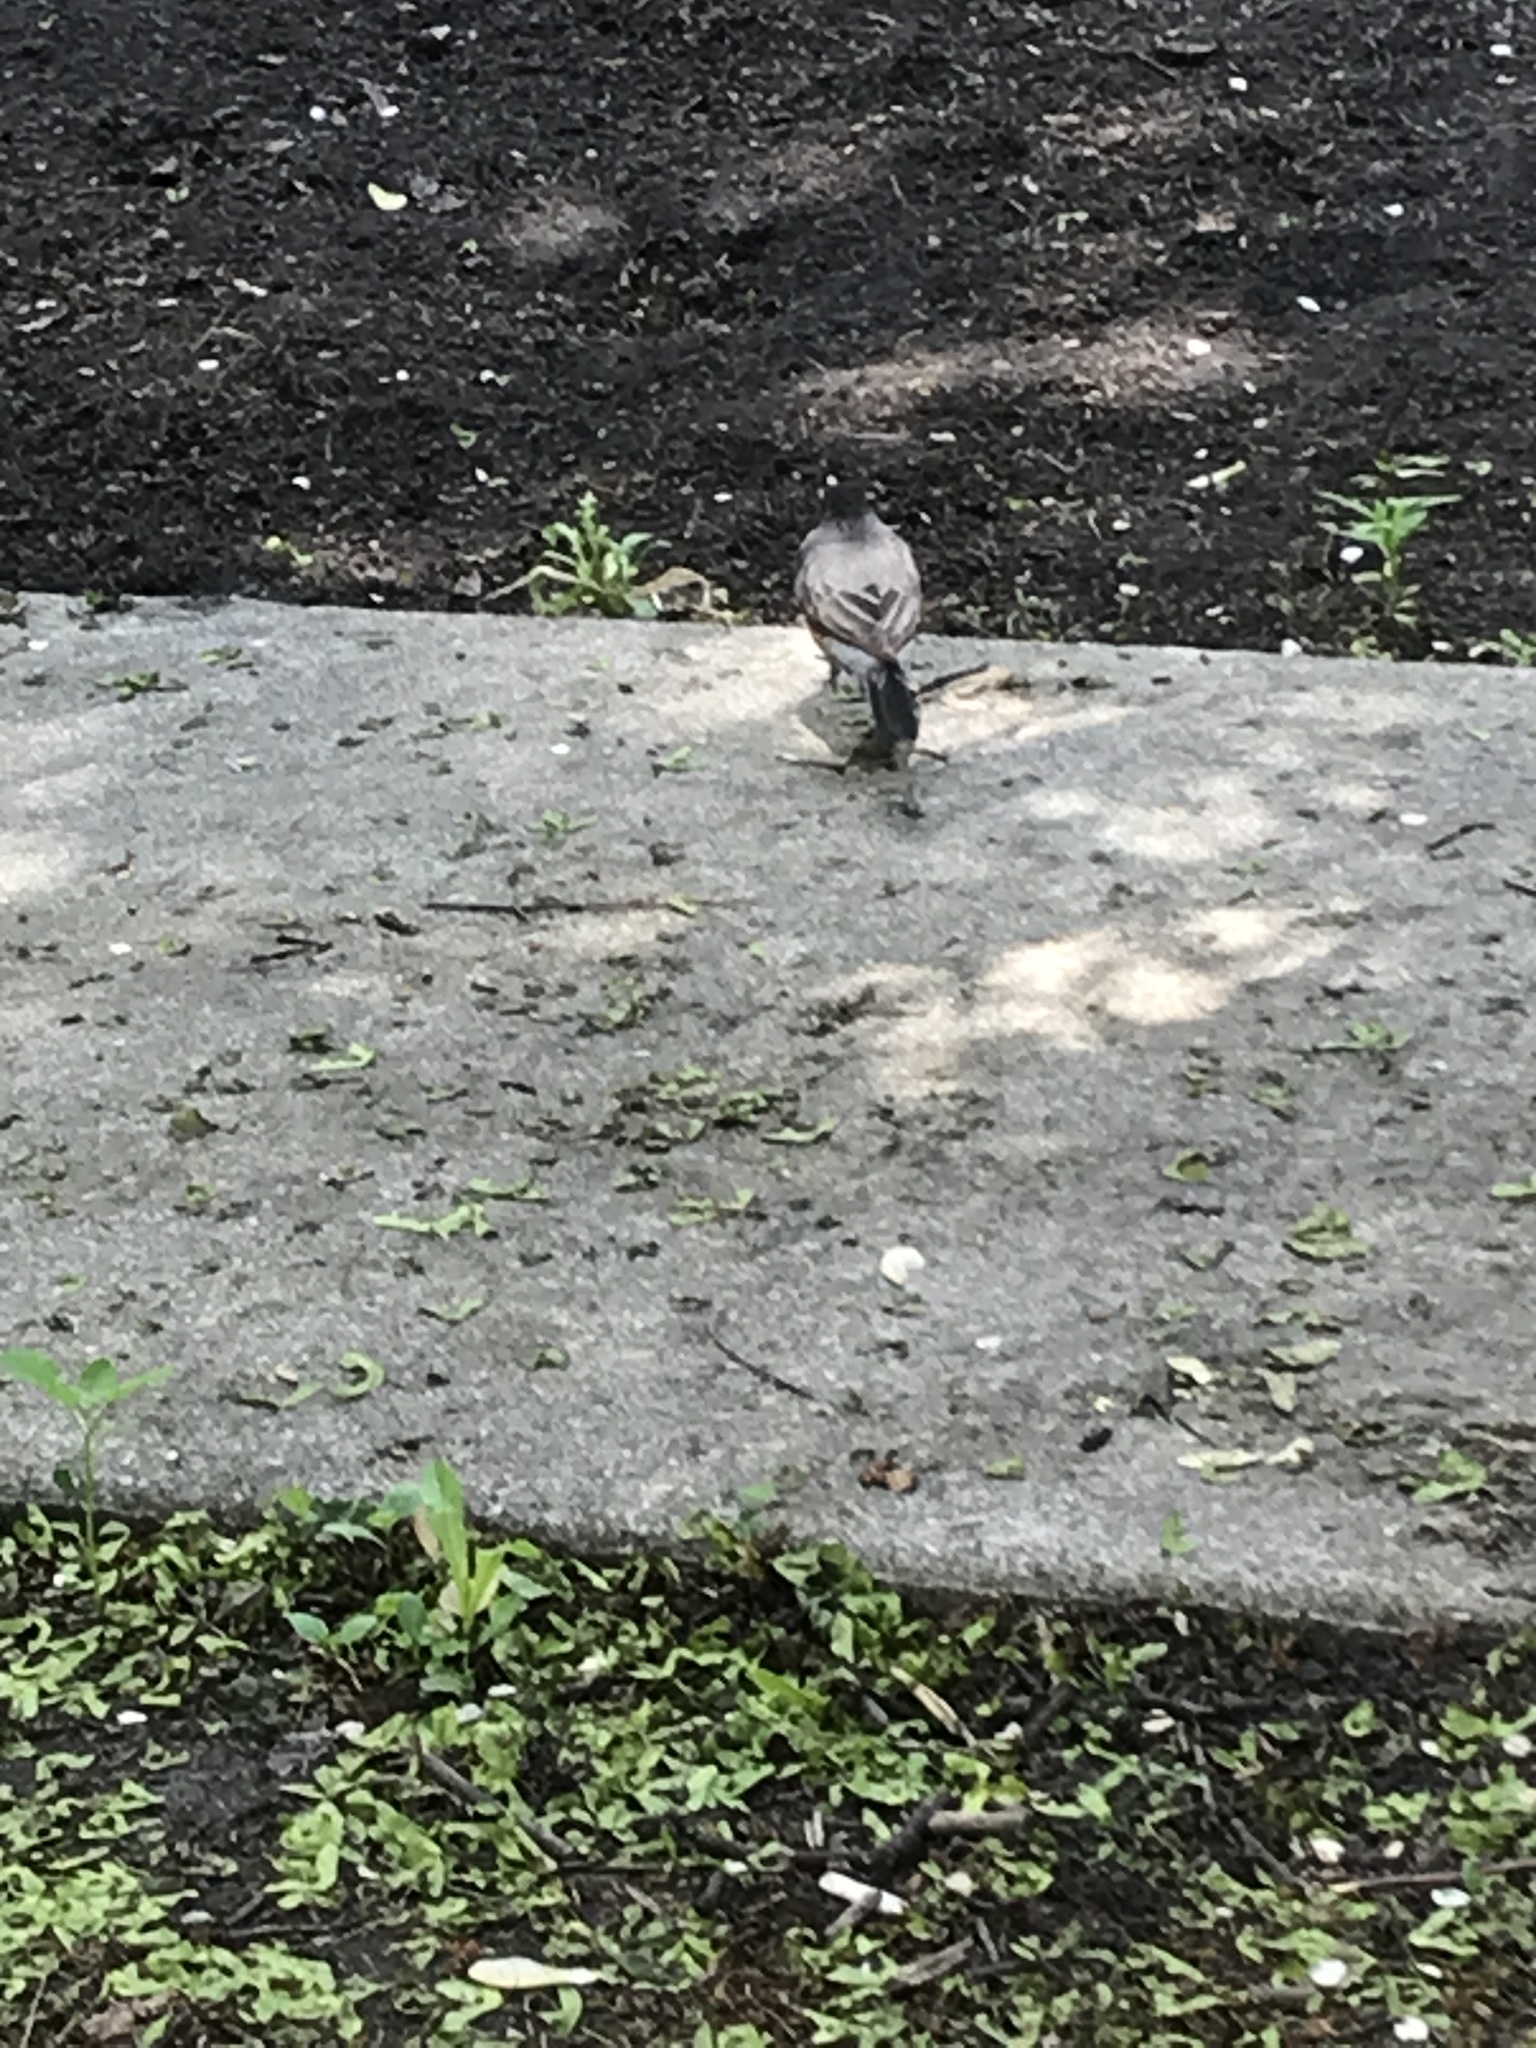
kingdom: Animalia
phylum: Chordata
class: Aves
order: Passeriformes
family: Turdidae
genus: Turdus
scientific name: Turdus migratorius
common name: American robin
